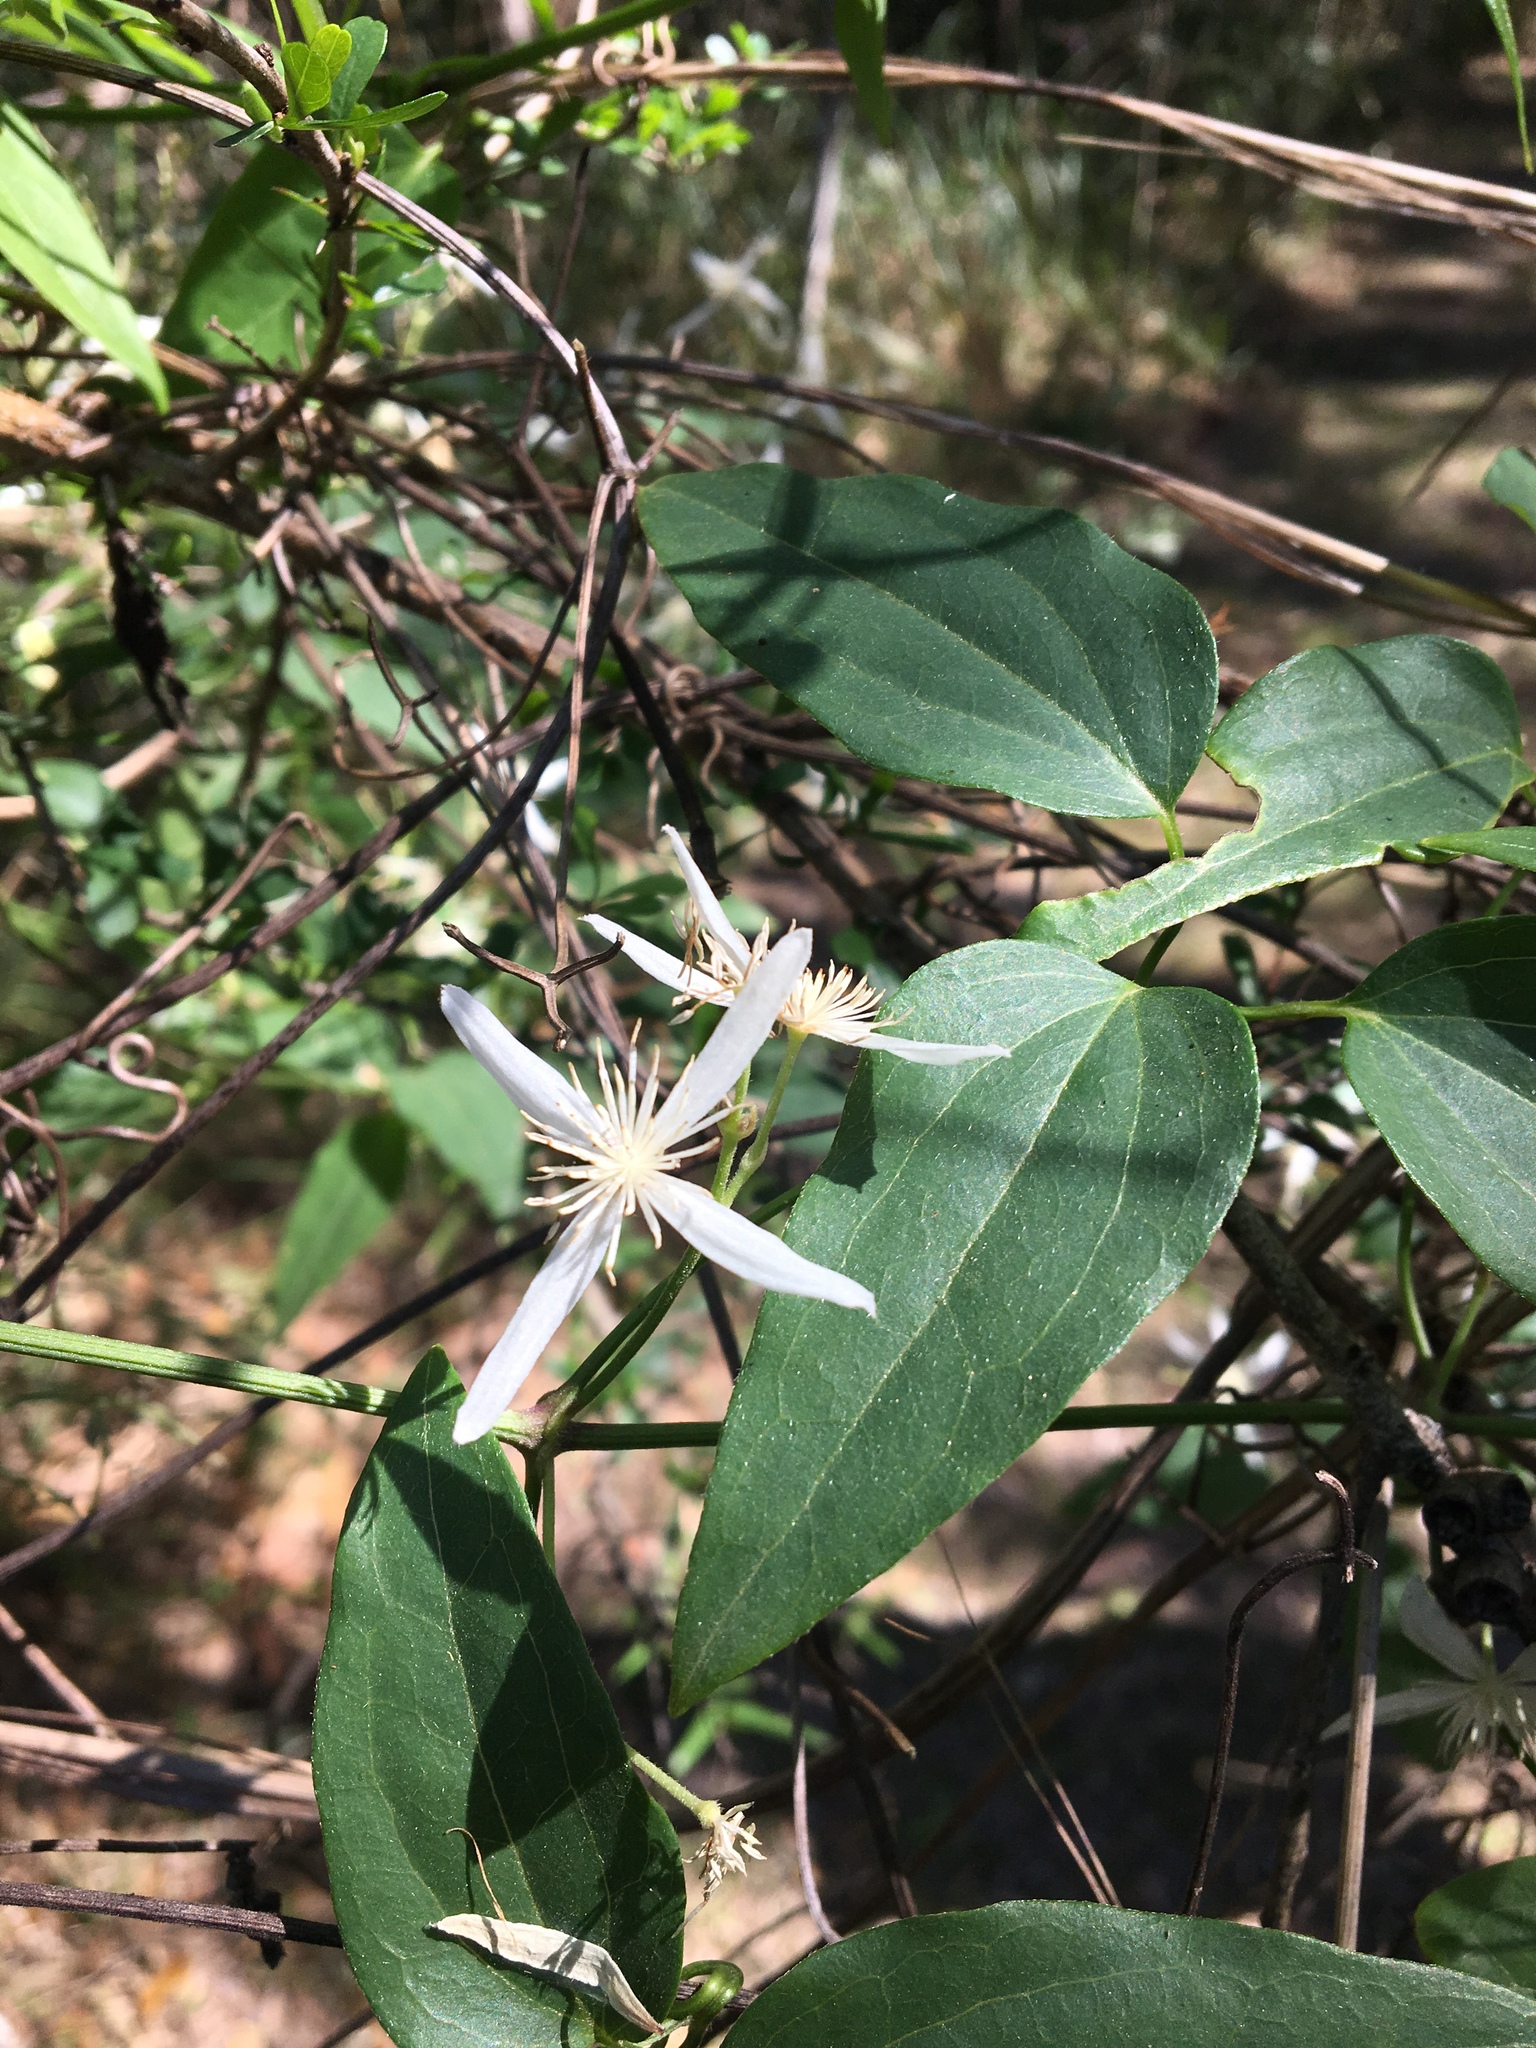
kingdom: Plantae
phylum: Tracheophyta
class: Magnoliopsida
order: Ranunculales
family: Ranunculaceae
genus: Clematis
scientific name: Clematis glycinoides
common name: Forest clematis
